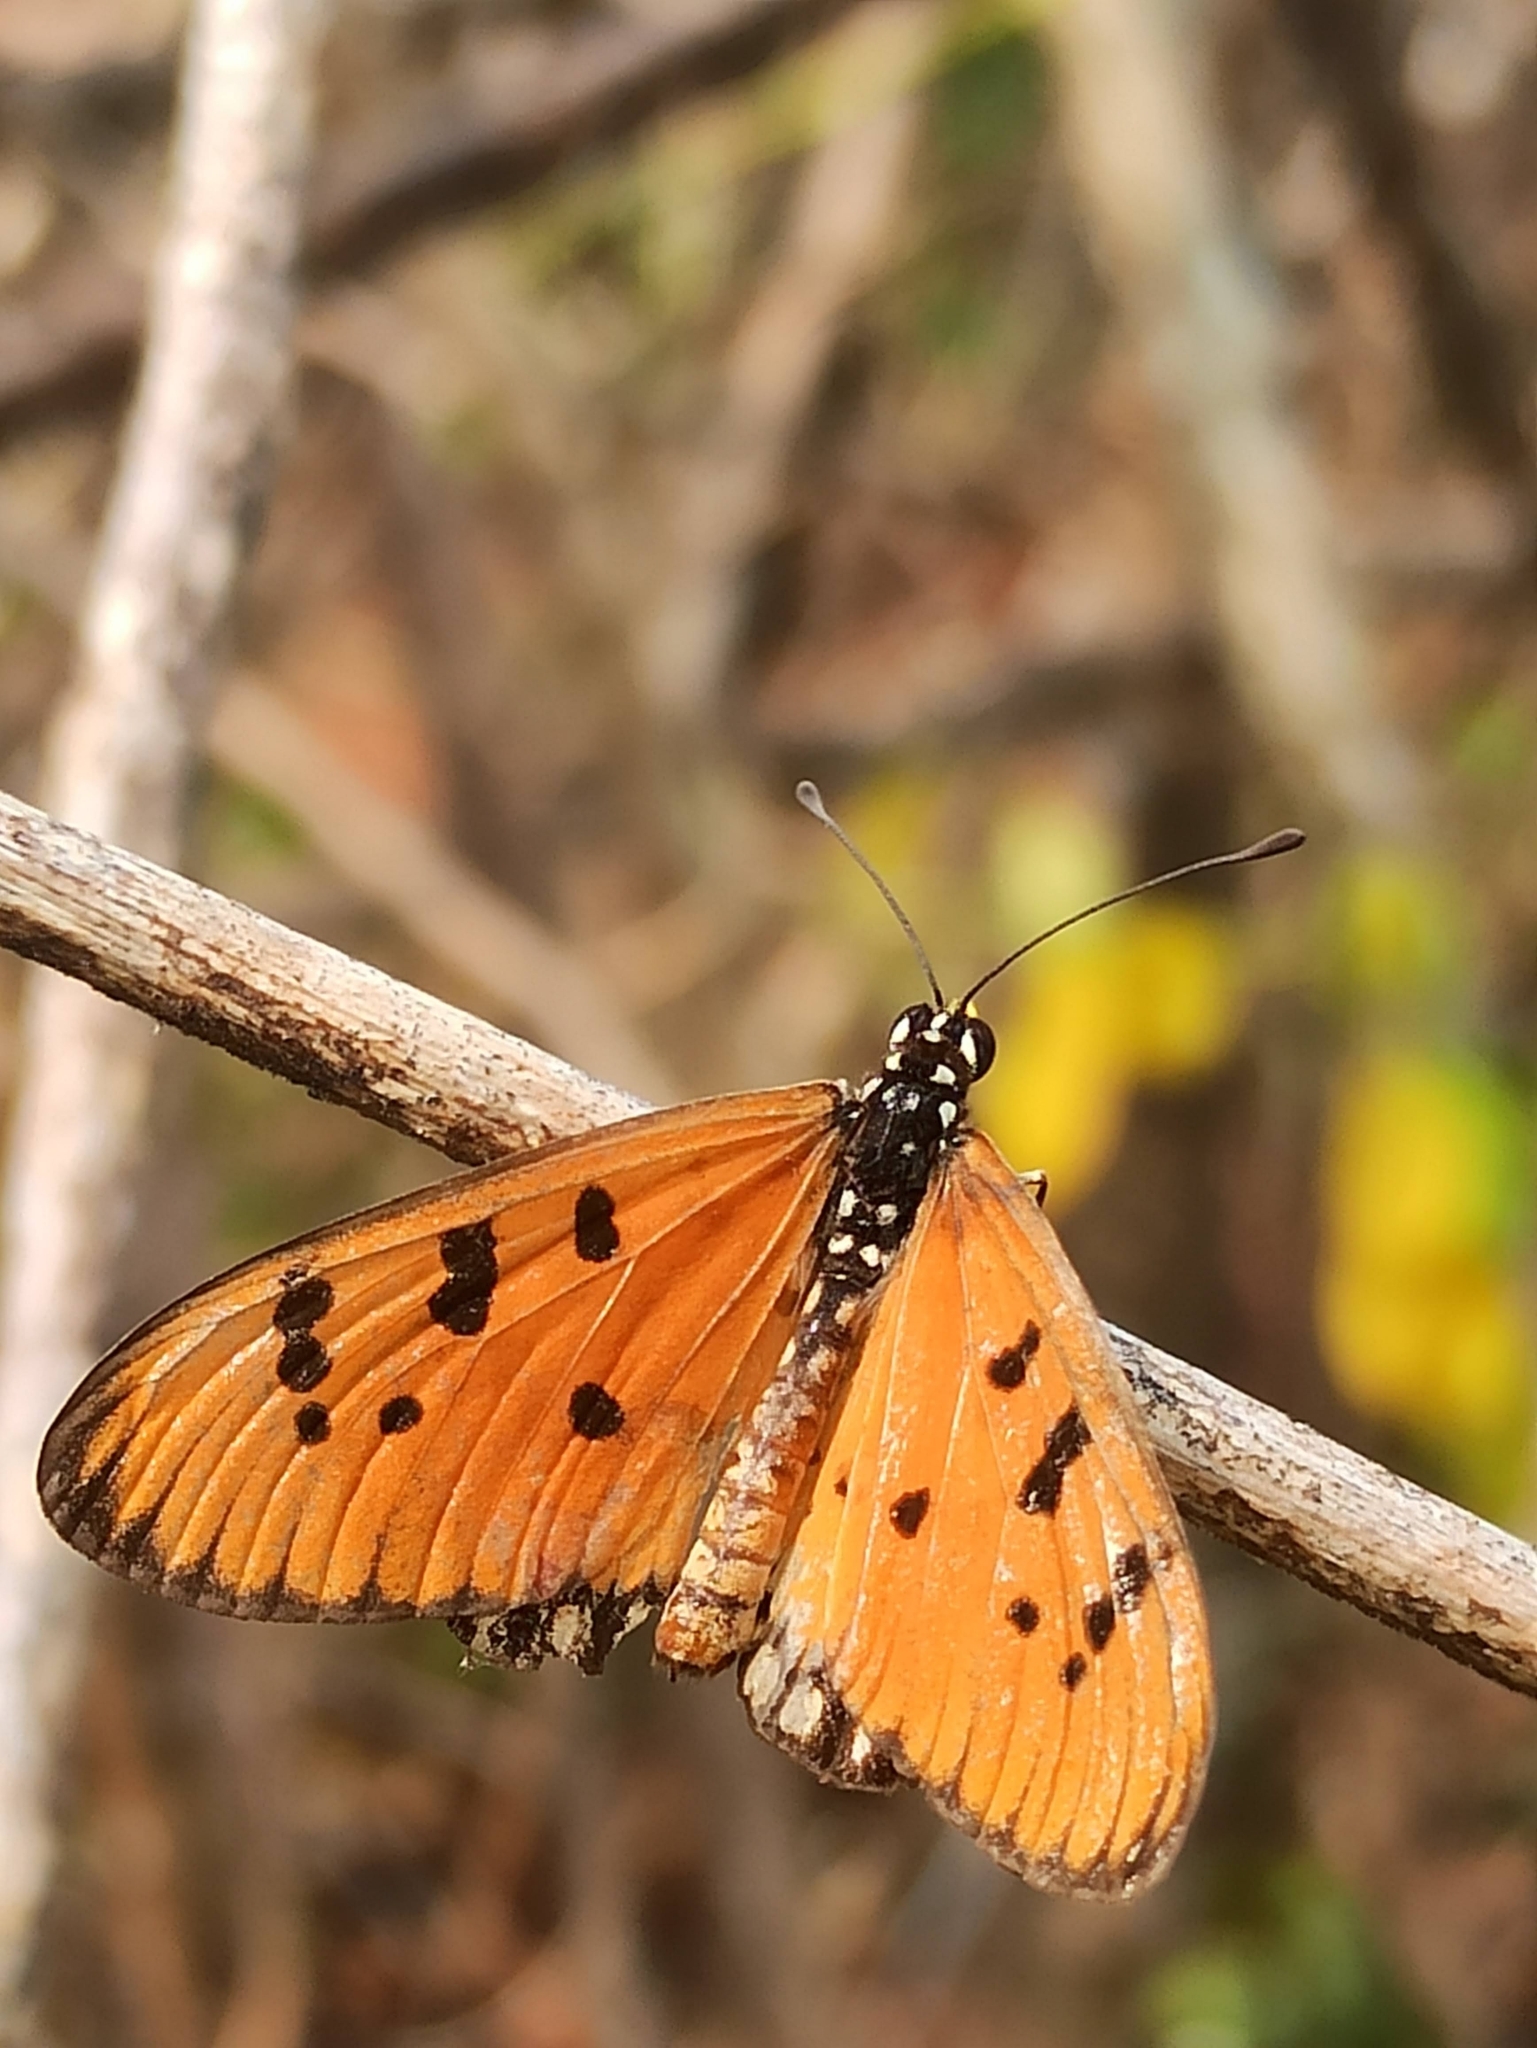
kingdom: Animalia
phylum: Arthropoda
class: Insecta
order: Lepidoptera
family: Nymphalidae
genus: Acraea
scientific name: Acraea terpsicore
